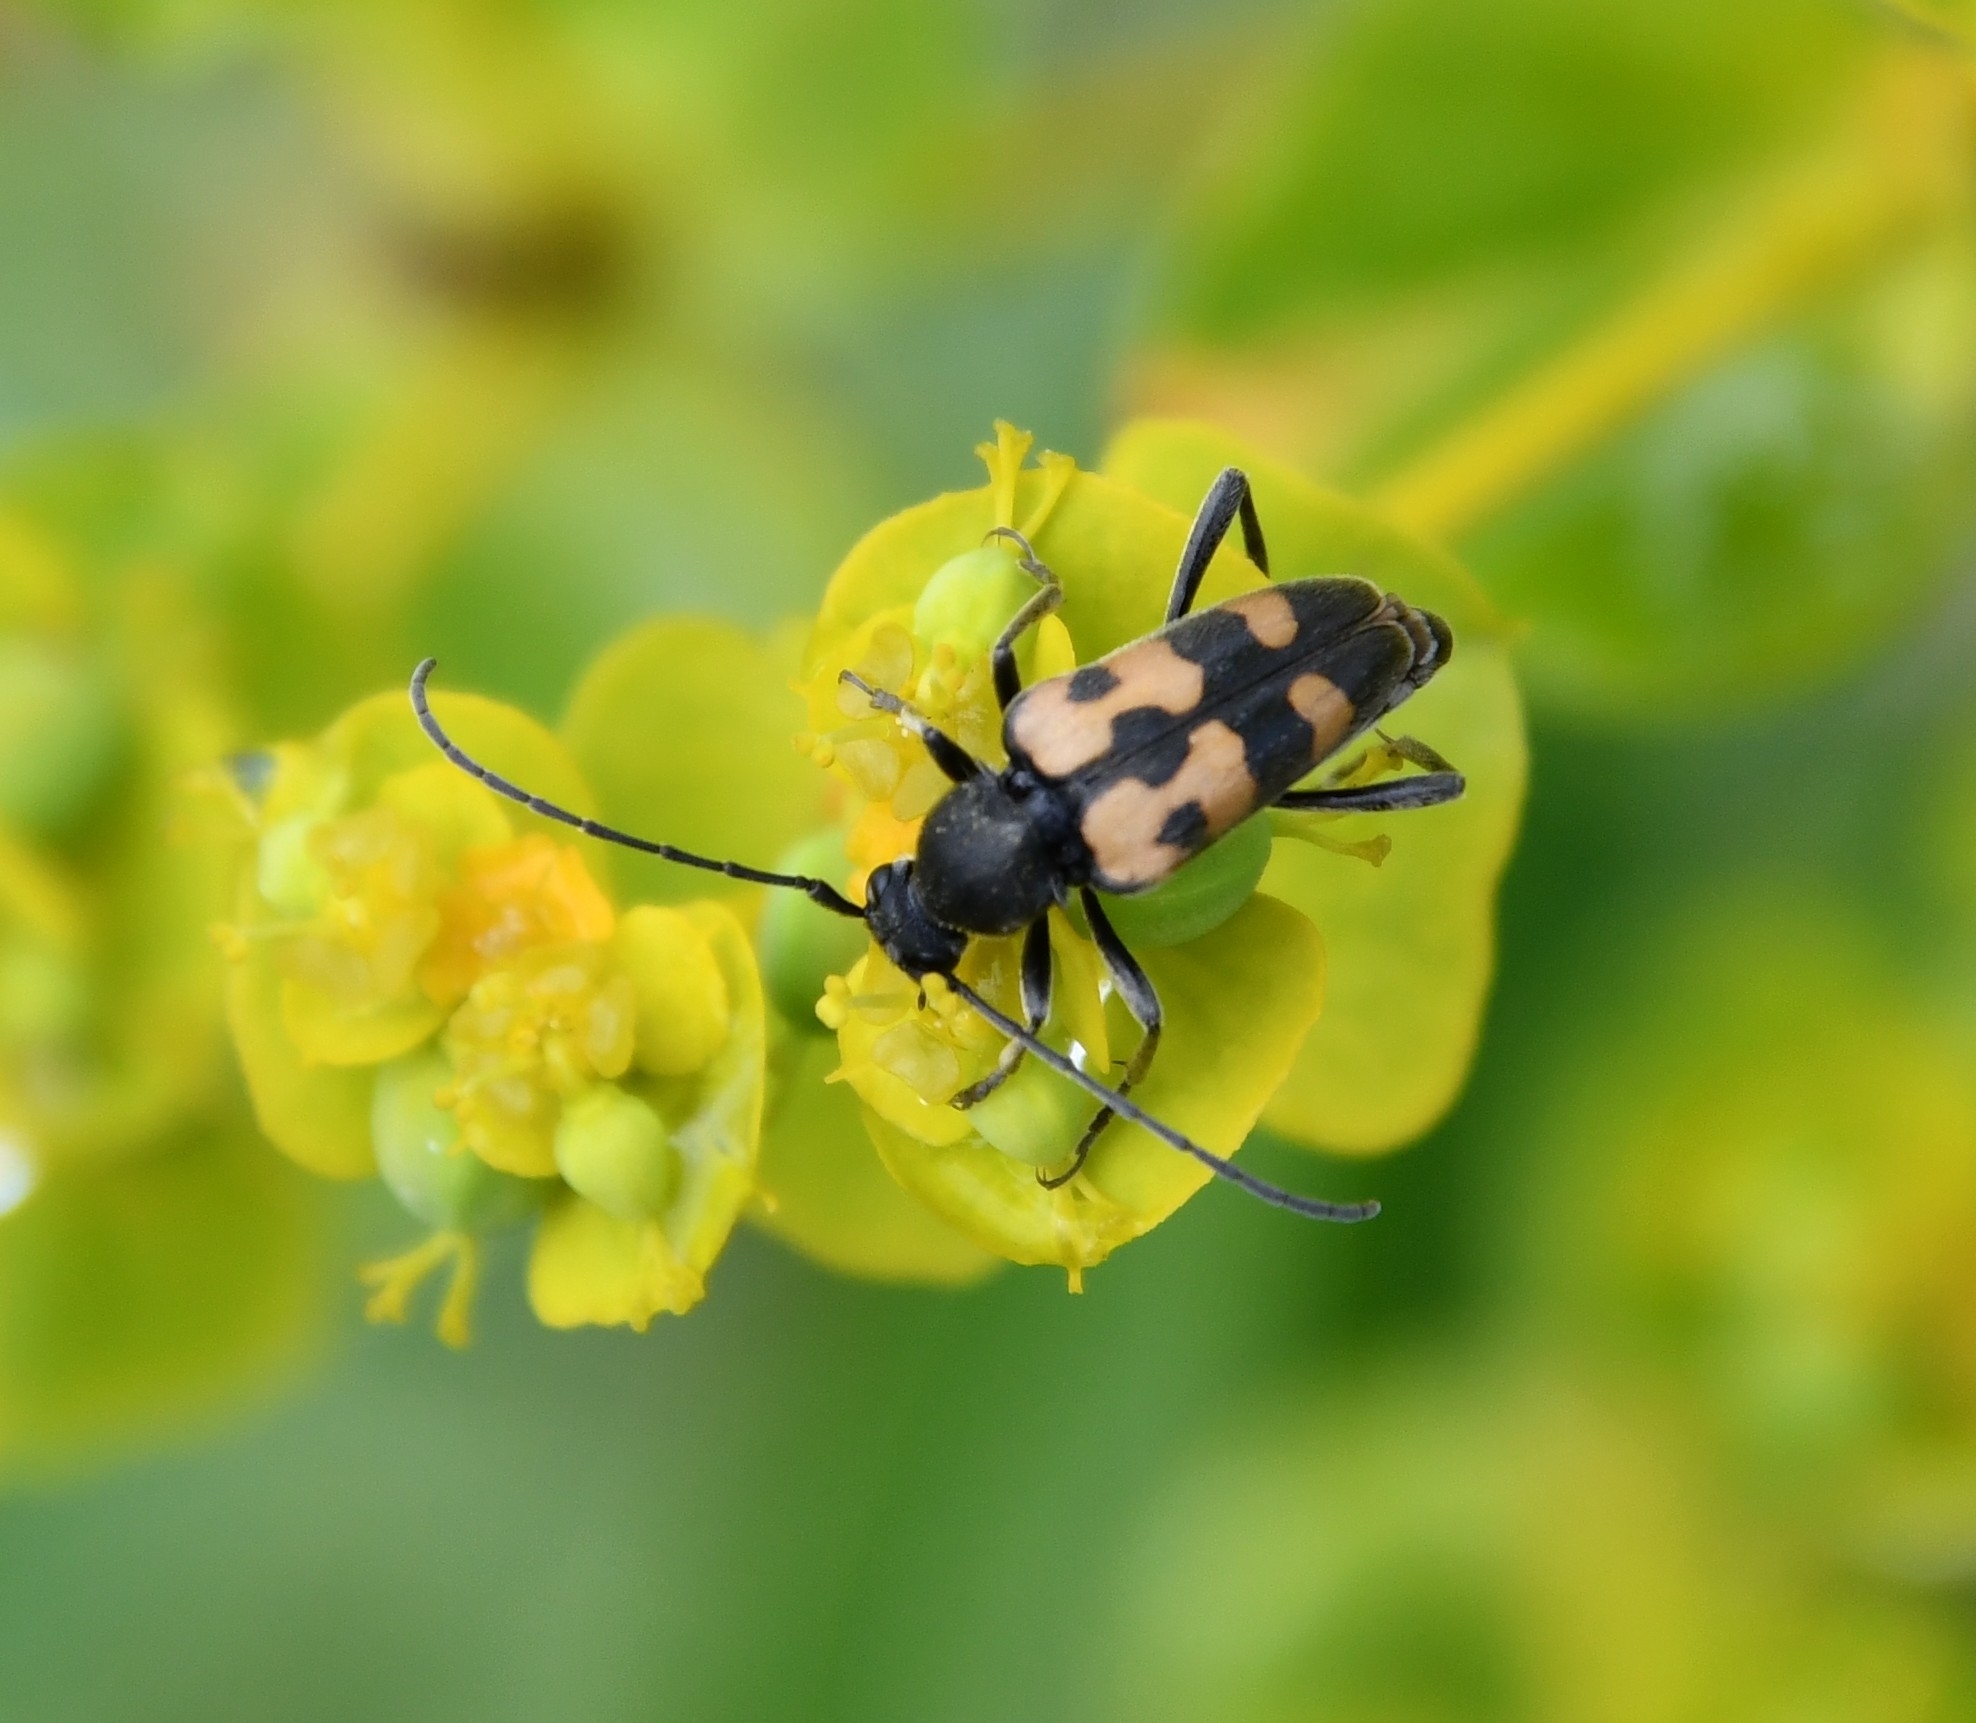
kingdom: Animalia
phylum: Arthropoda
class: Insecta
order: Coleoptera
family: Cerambycidae
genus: Pachytodes
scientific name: Pachytodes
